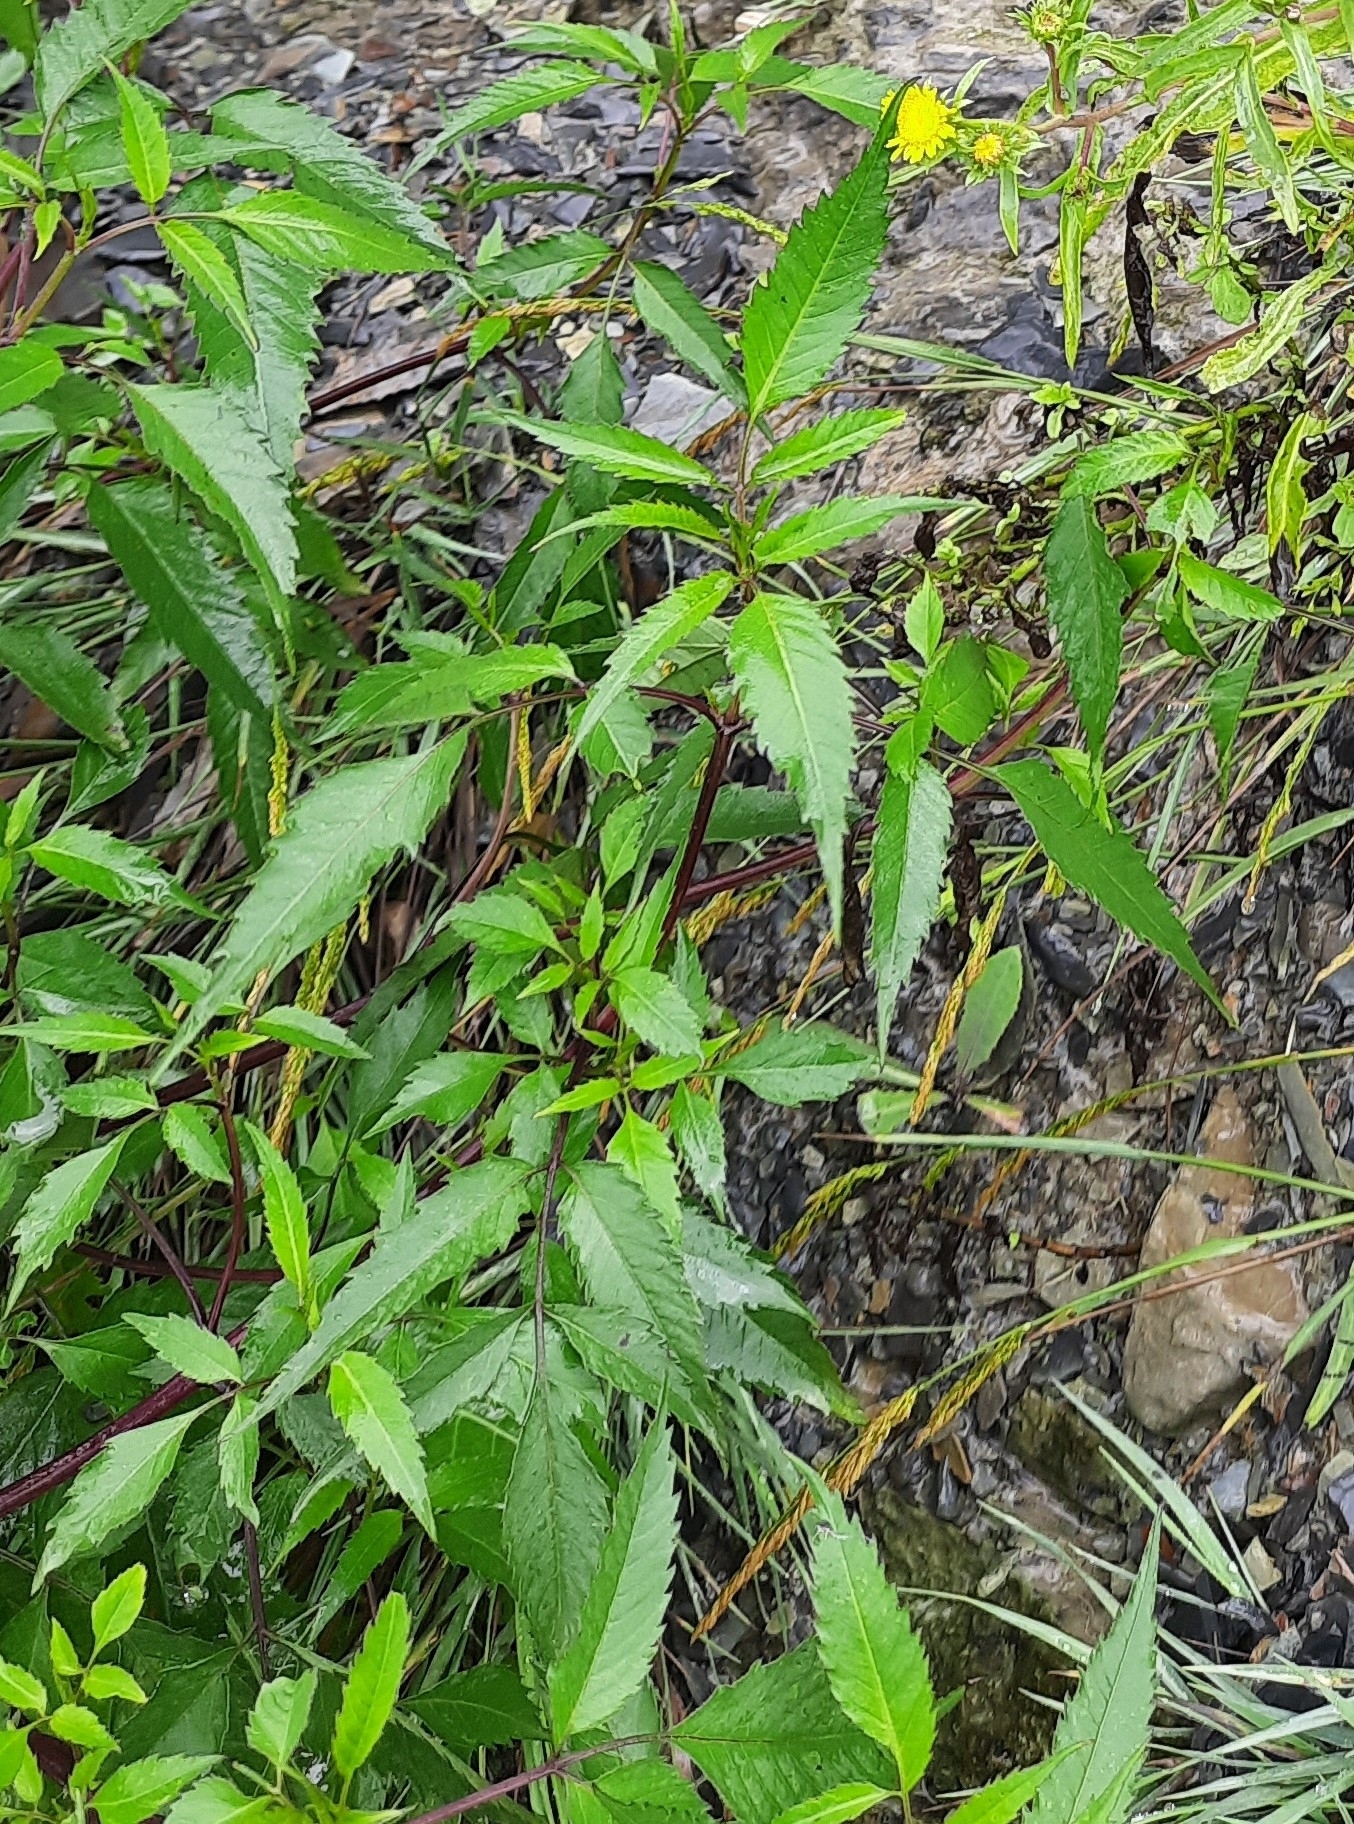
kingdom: Plantae
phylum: Tracheophyta
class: Magnoliopsida
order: Asterales
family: Asteraceae
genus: Bidens
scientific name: Bidens frondosa
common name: Beggarticks
